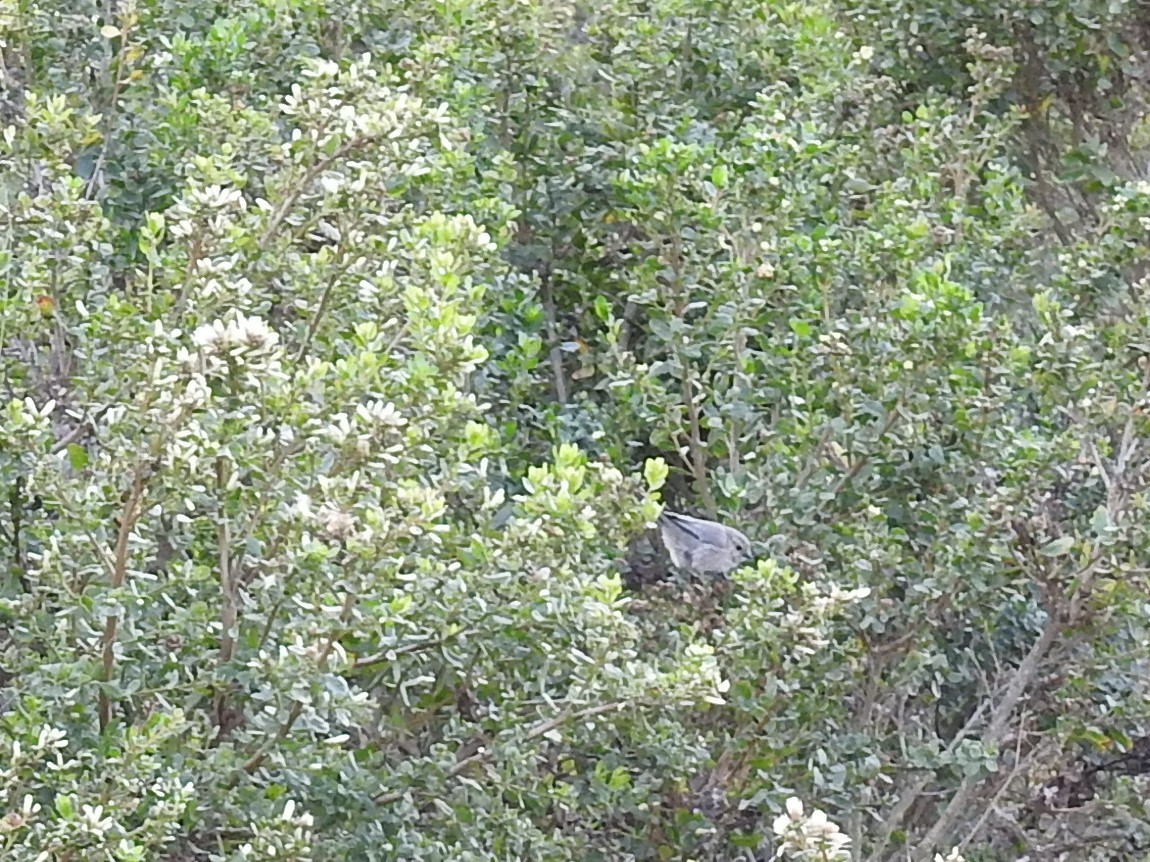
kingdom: Animalia
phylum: Chordata
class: Aves
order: Passeriformes
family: Aegithalidae
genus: Psaltriparus
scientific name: Psaltriparus minimus
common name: American bushtit
